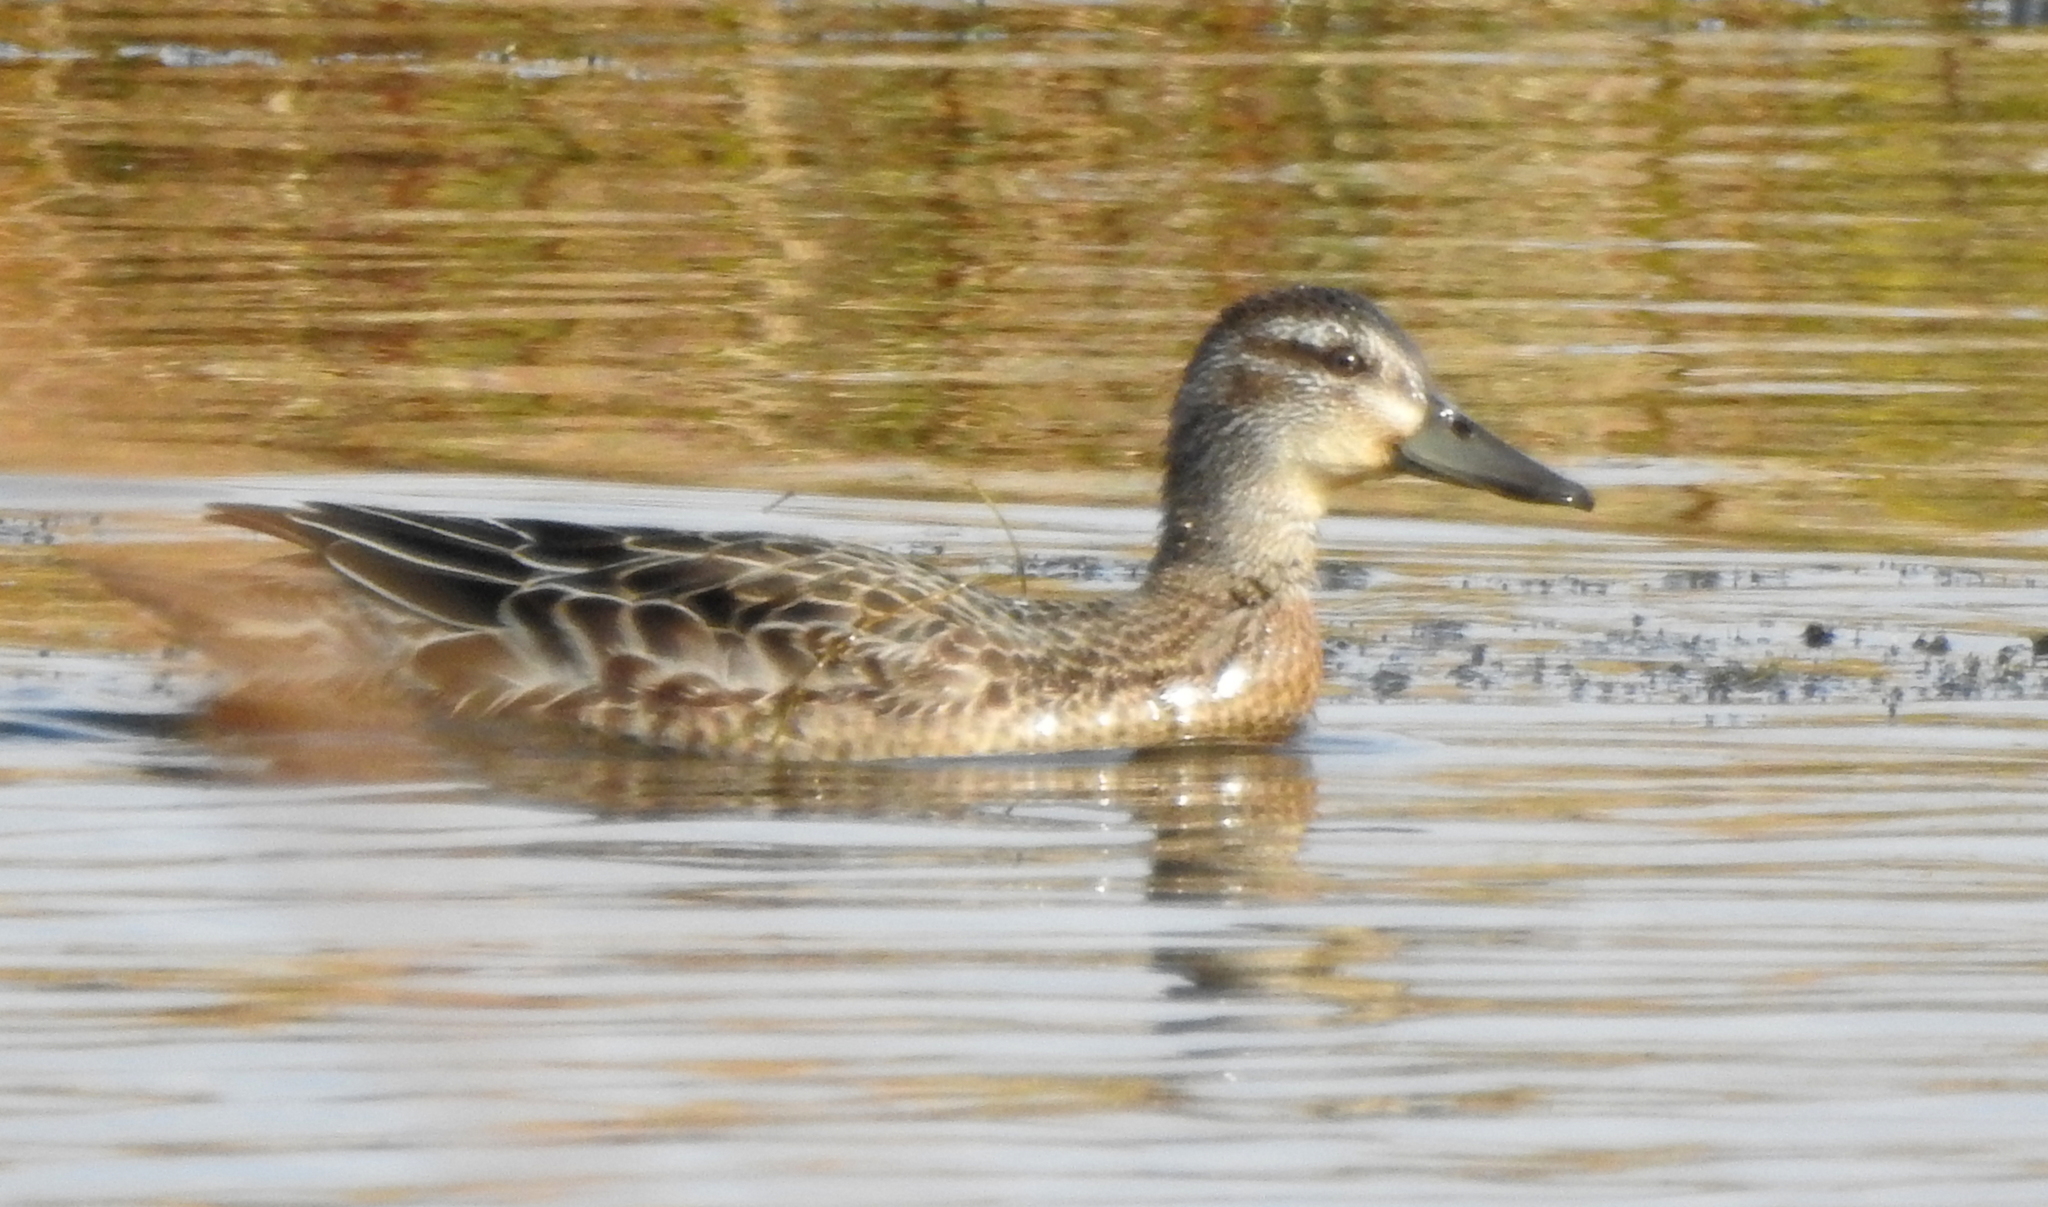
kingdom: Animalia
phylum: Chordata
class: Aves
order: Anseriformes
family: Anatidae
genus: Spatula
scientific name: Spatula querquedula
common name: Garganey
